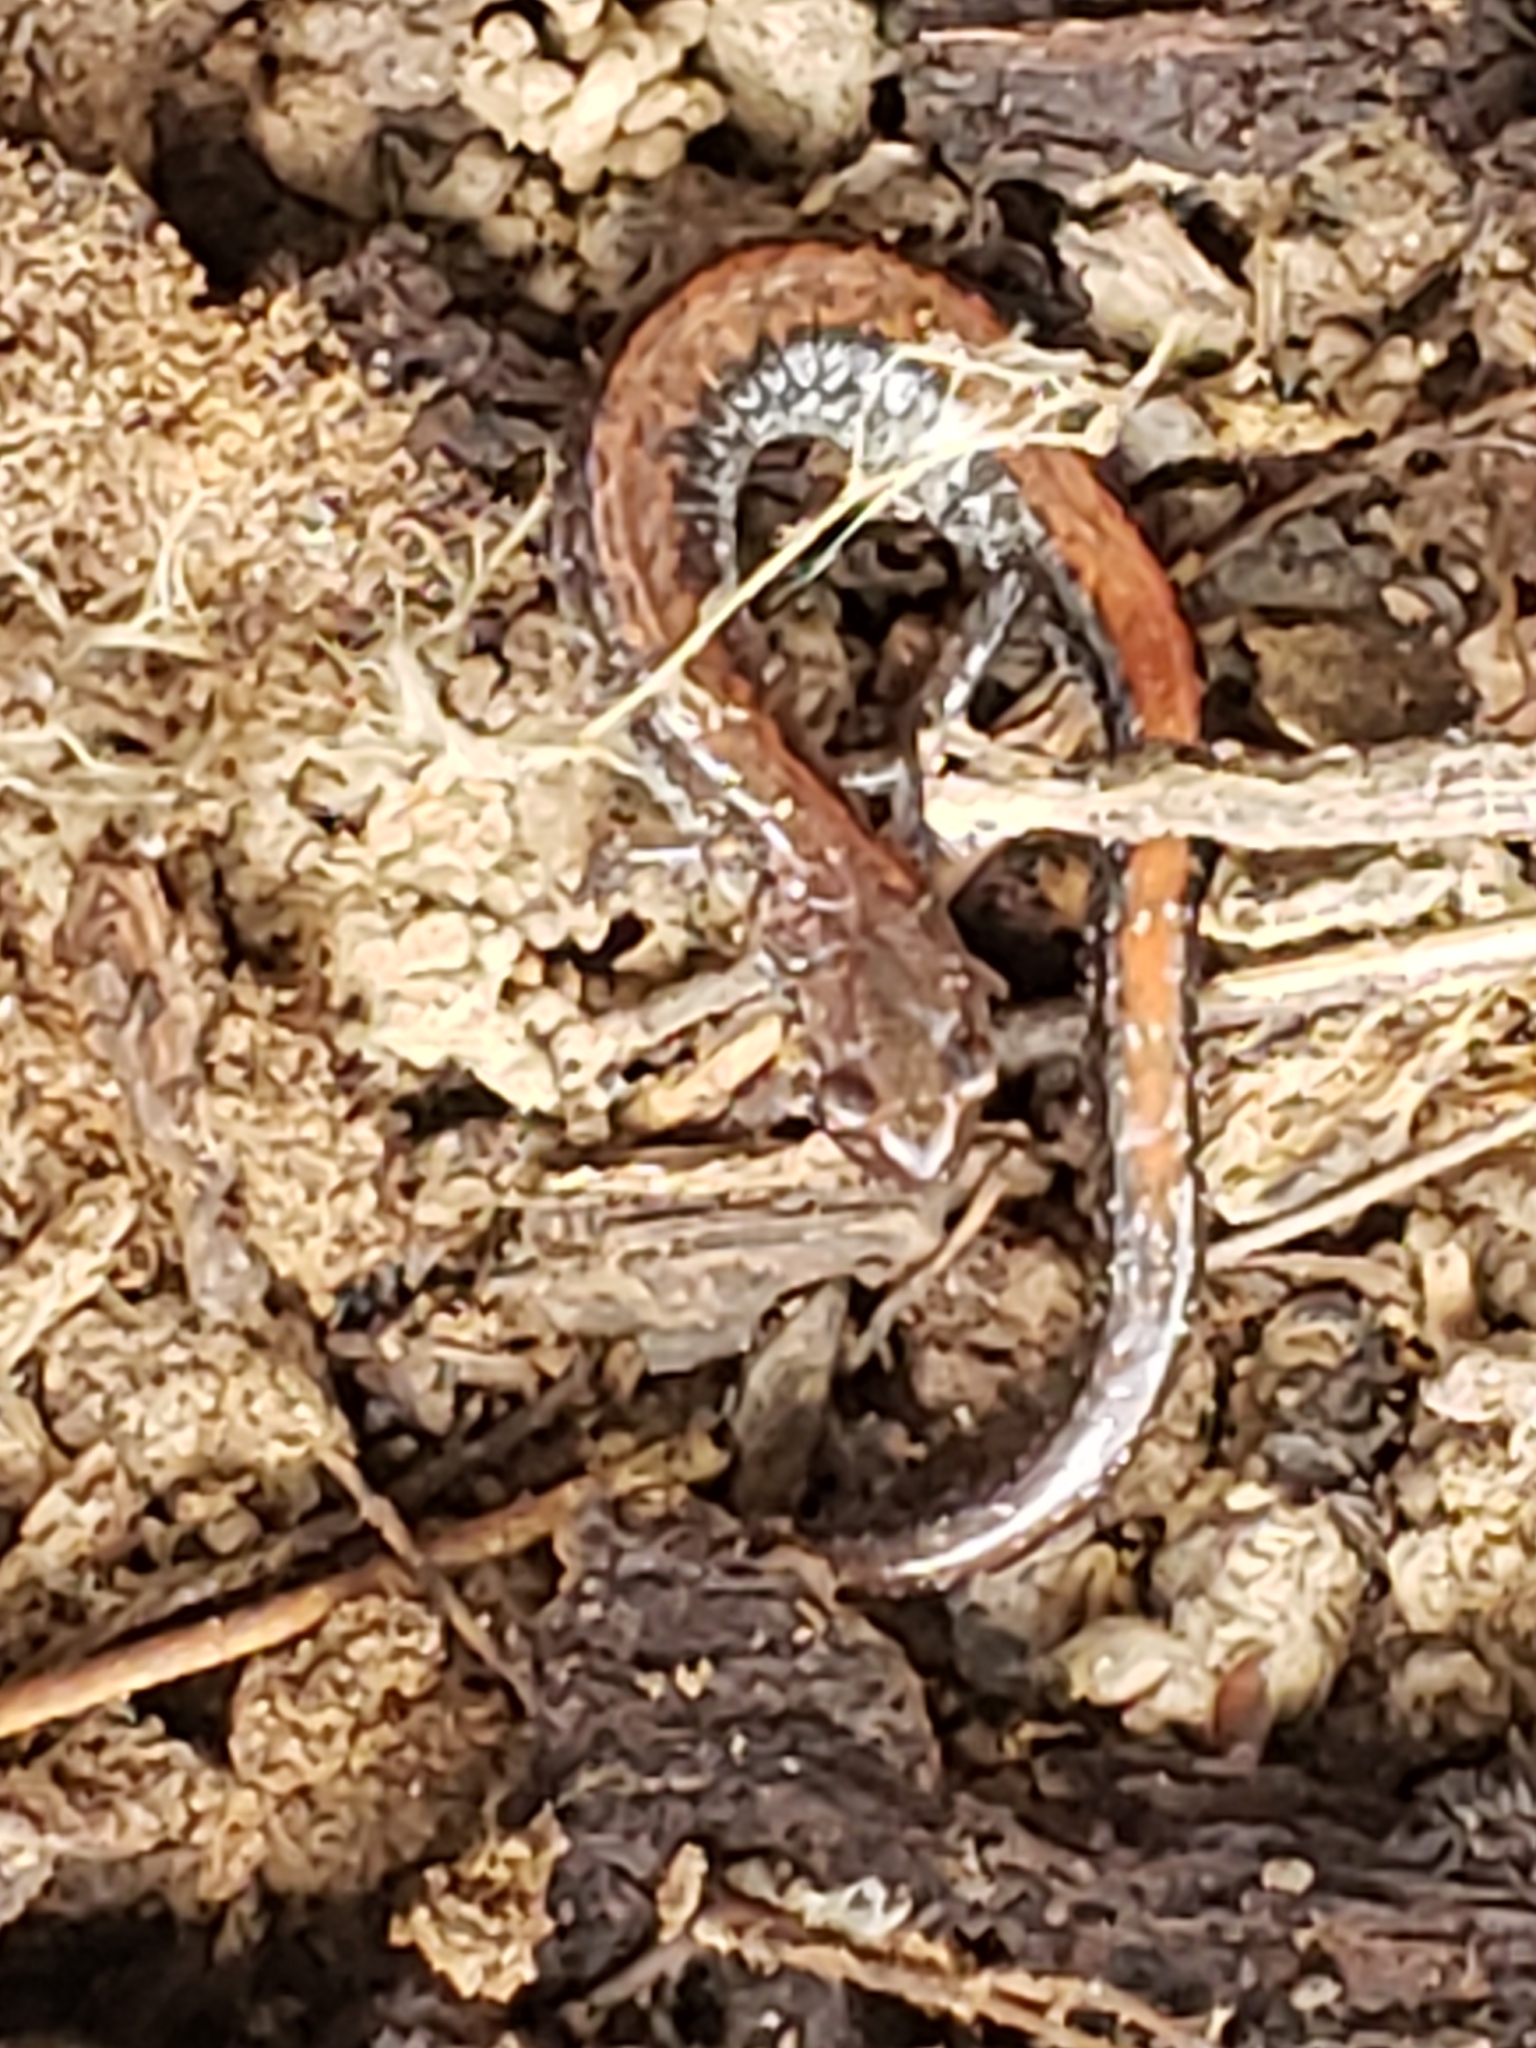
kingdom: Animalia
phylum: Chordata
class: Amphibia
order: Caudata
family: Plethodontidae
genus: Plethodon
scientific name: Plethodon cinereus
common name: Redback salamander
